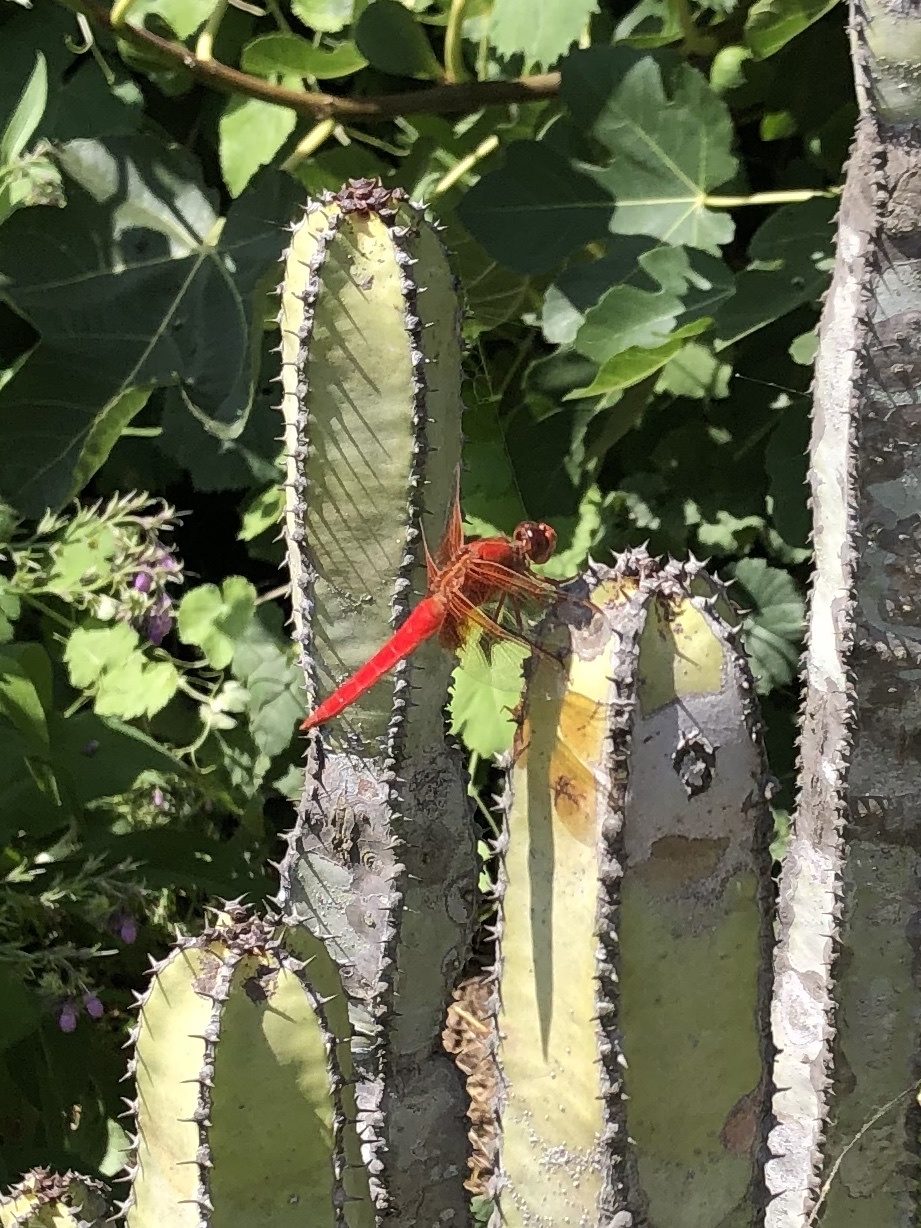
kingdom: Animalia
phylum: Arthropoda
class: Insecta
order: Odonata
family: Libellulidae
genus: Libellula
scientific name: Libellula croceipennis
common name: Neon skimmer
